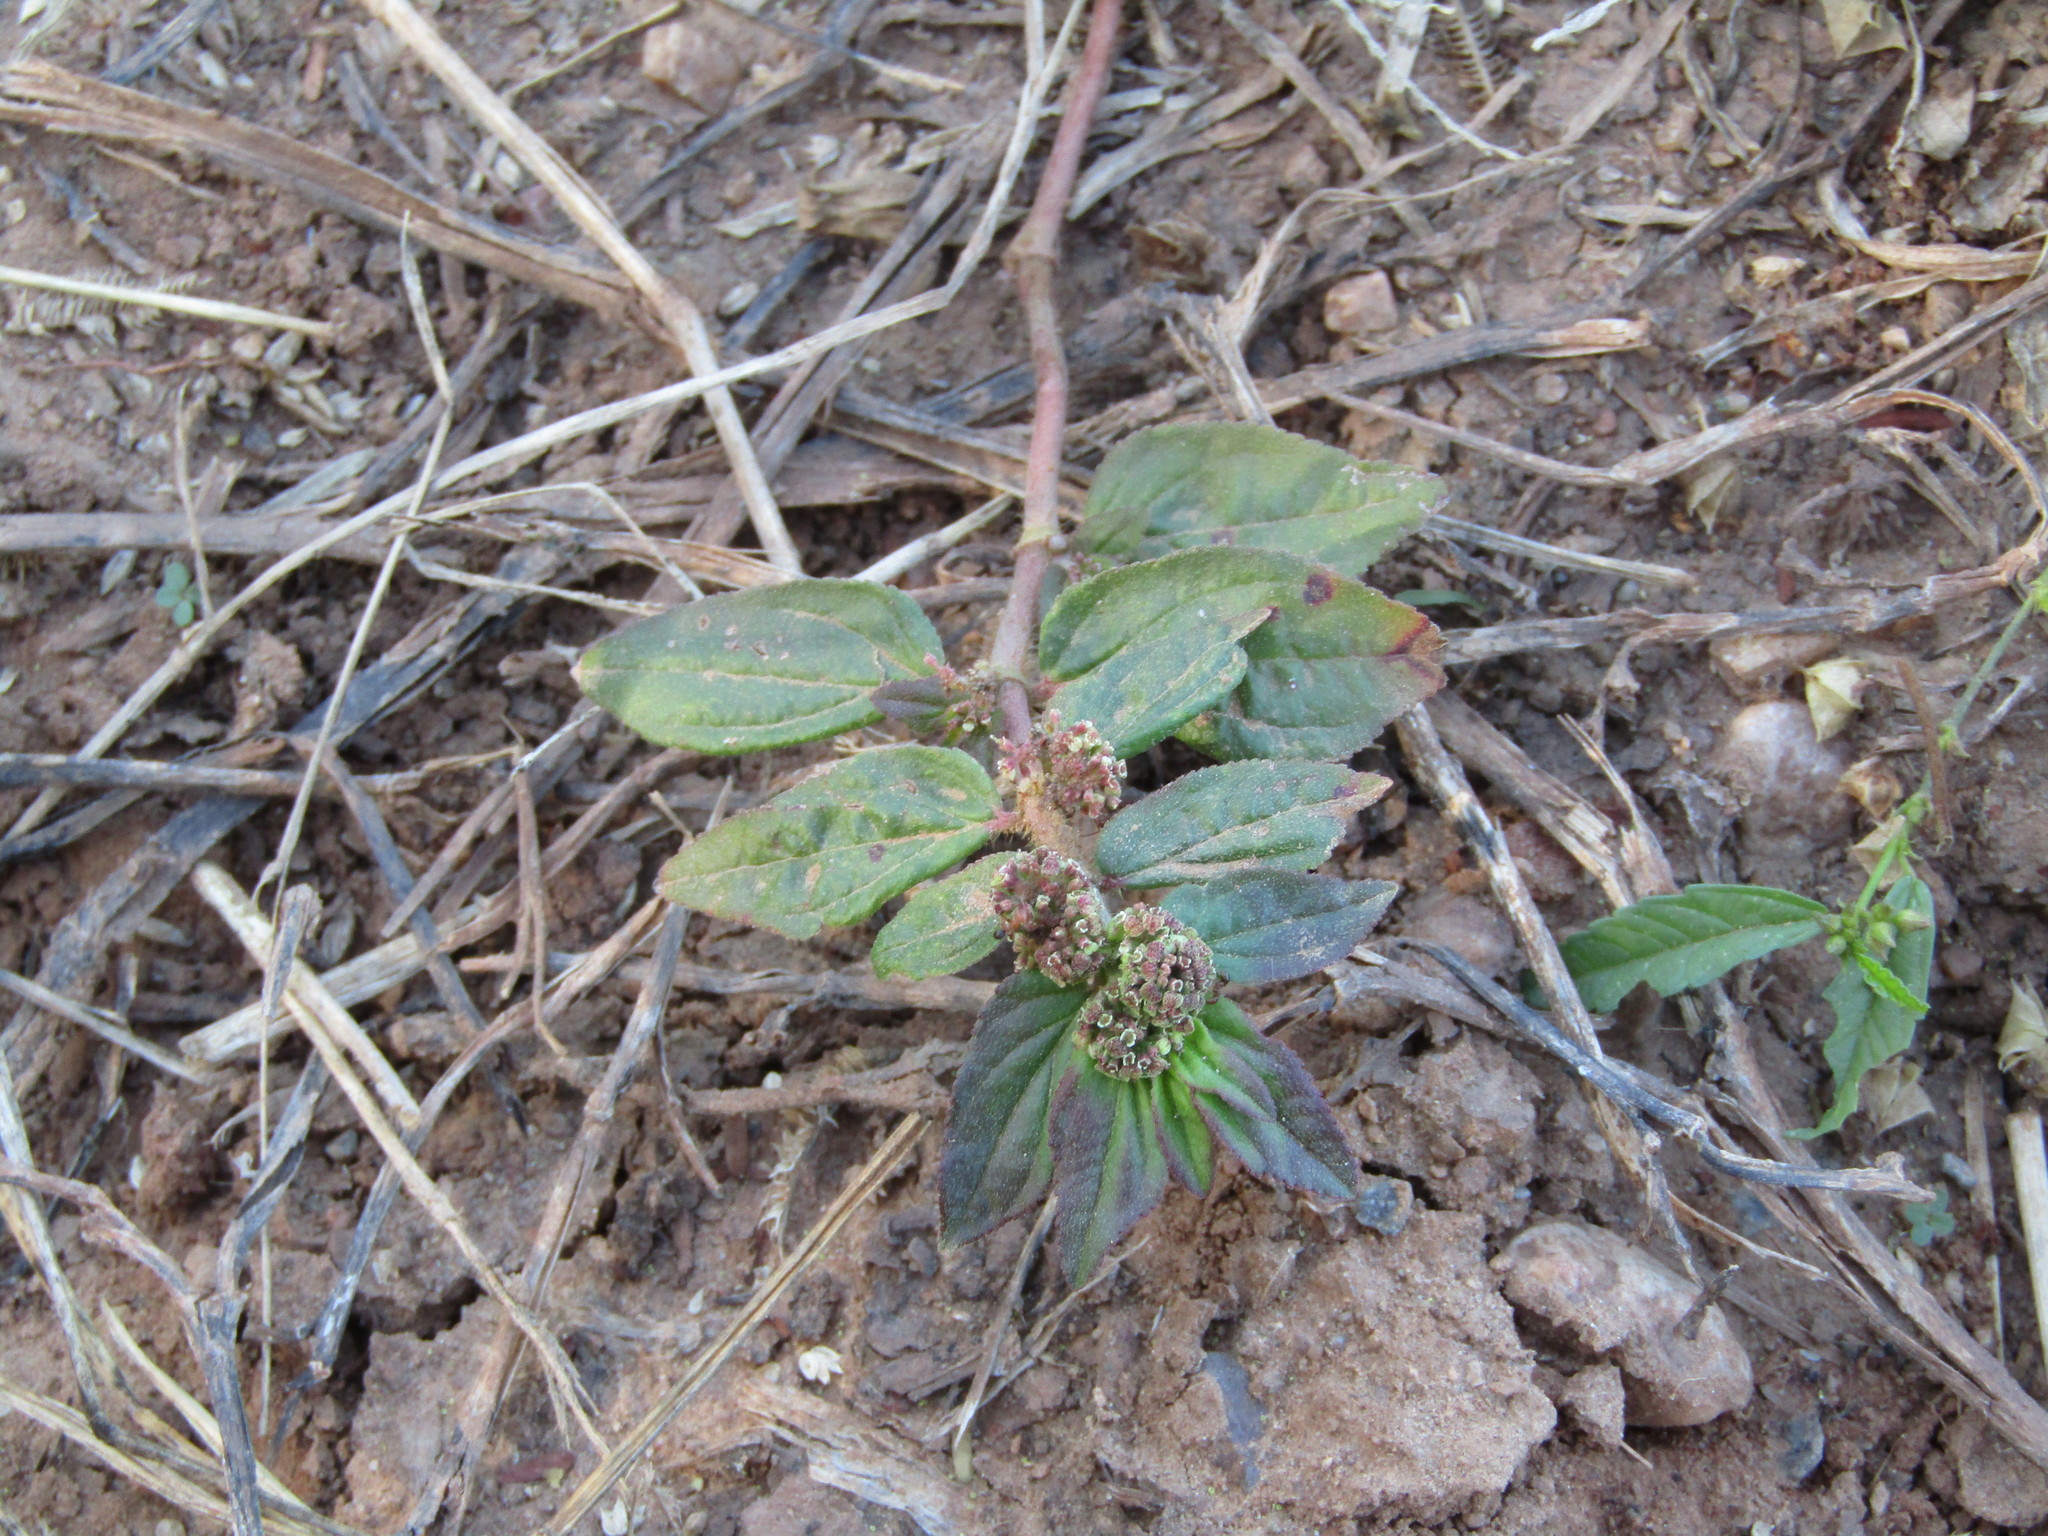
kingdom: Plantae
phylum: Tracheophyta
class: Magnoliopsida
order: Malpighiales
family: Euphorbiaceae
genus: Euphorbia
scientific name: Euphorbia hirta
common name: Pillpod sandmat
